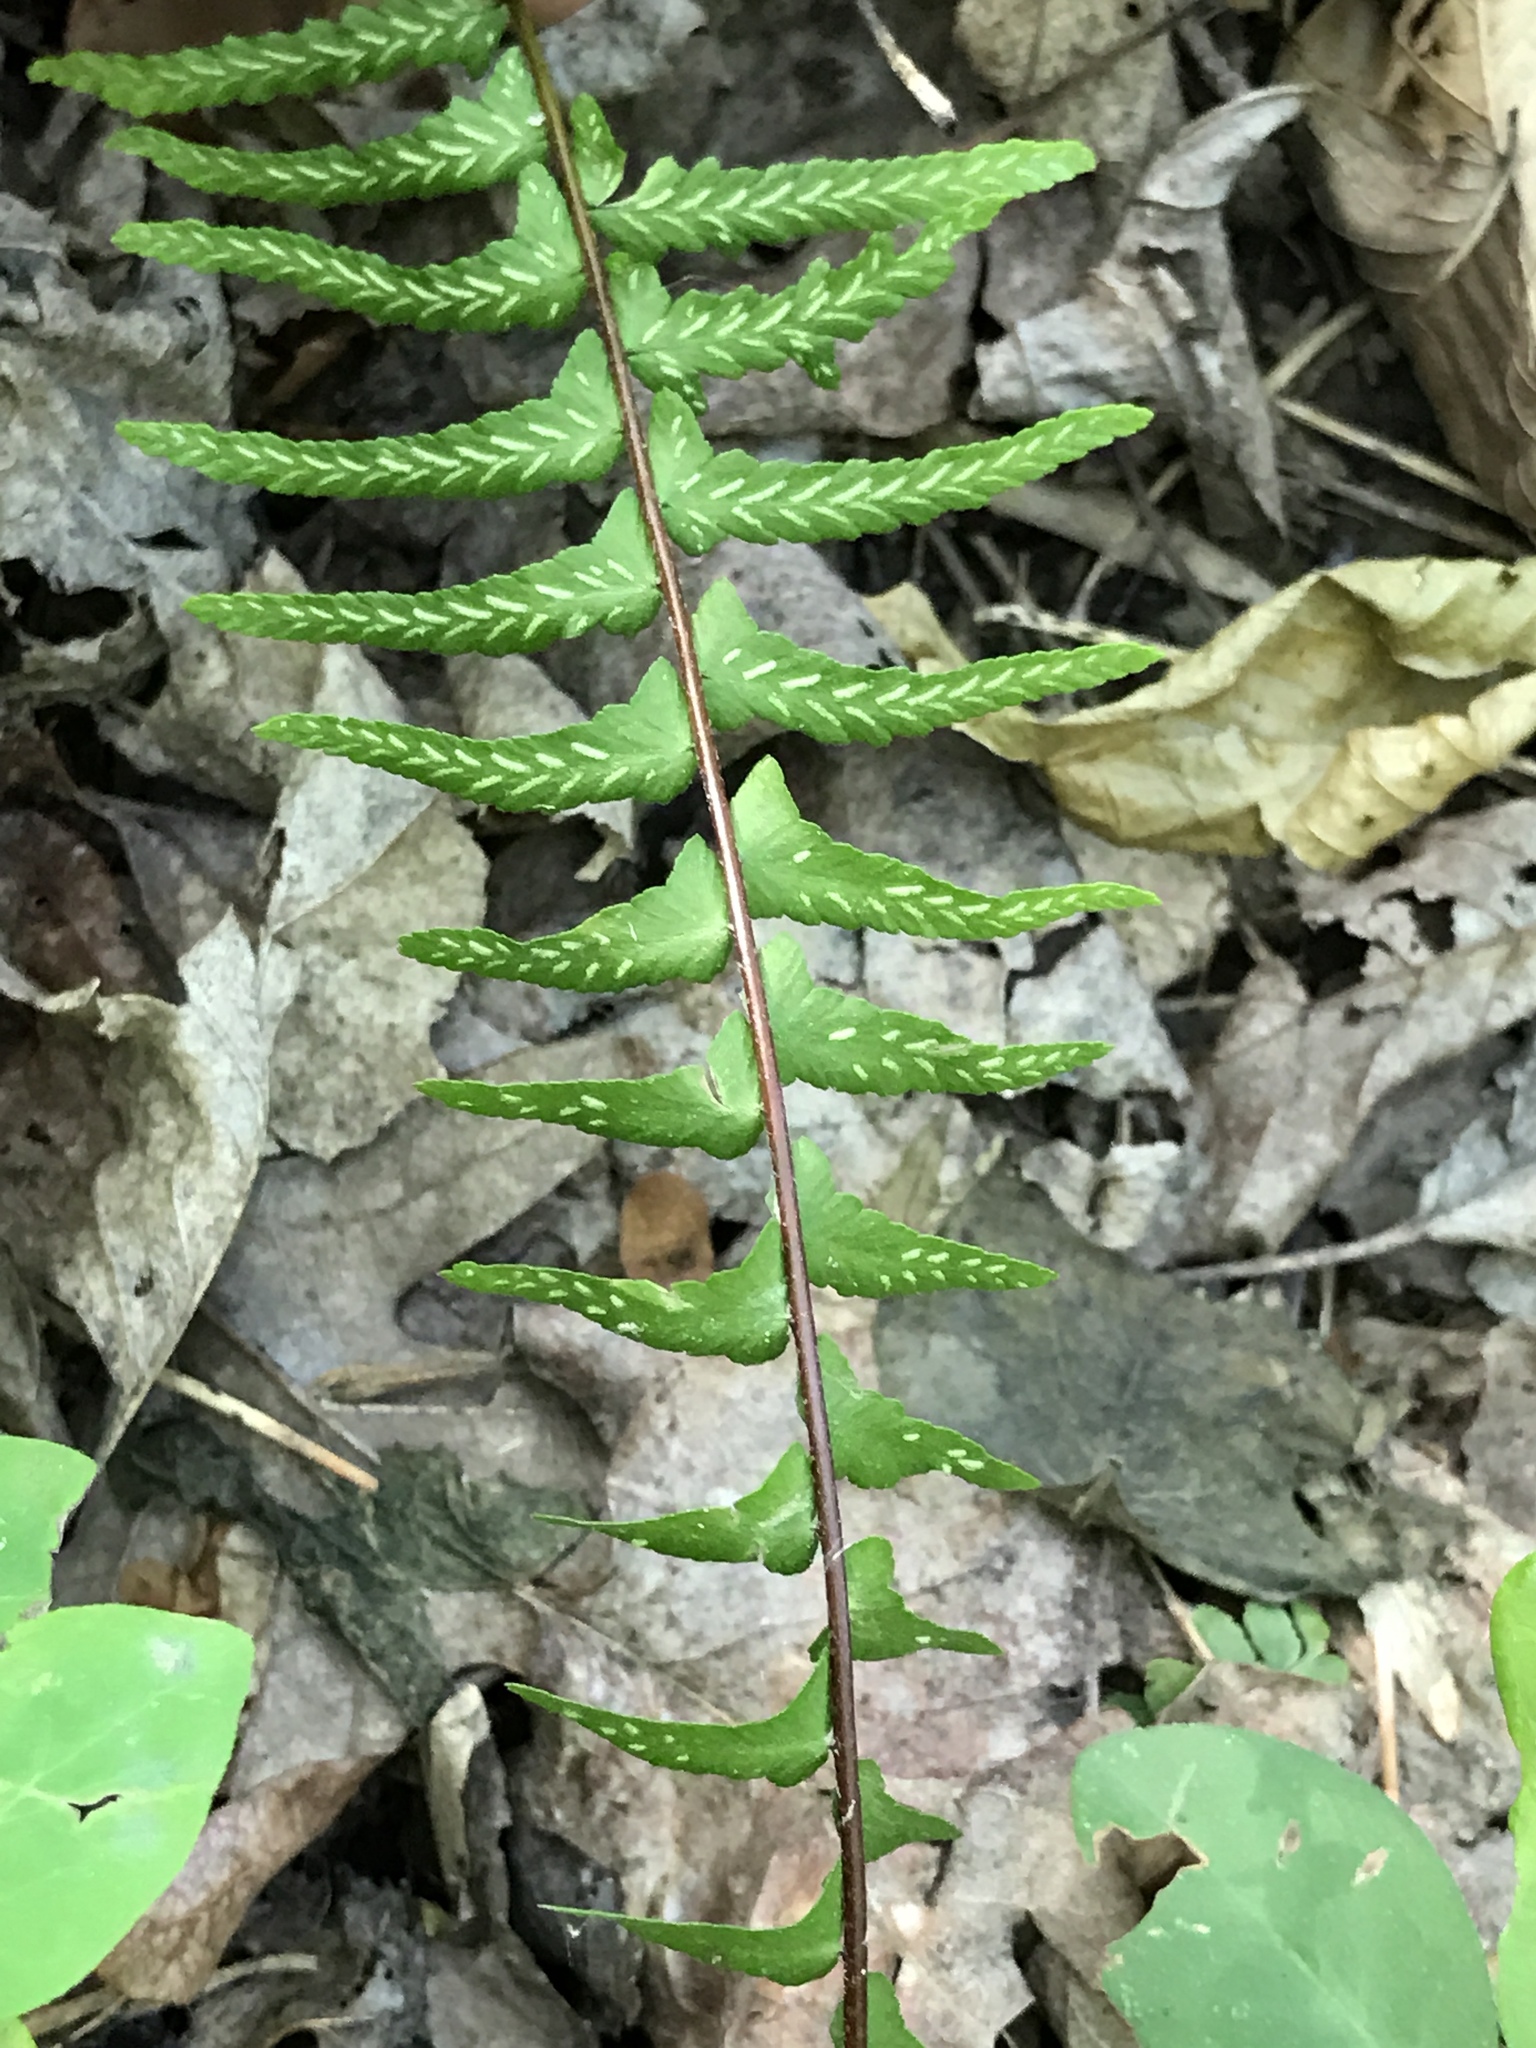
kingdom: Plantae
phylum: Tracheophyta
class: Polypodiopsida
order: Polypodiales
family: Aspleniaceae
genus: Asplenium
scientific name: Asplenium platyneuron
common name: Ebony spleenwort
